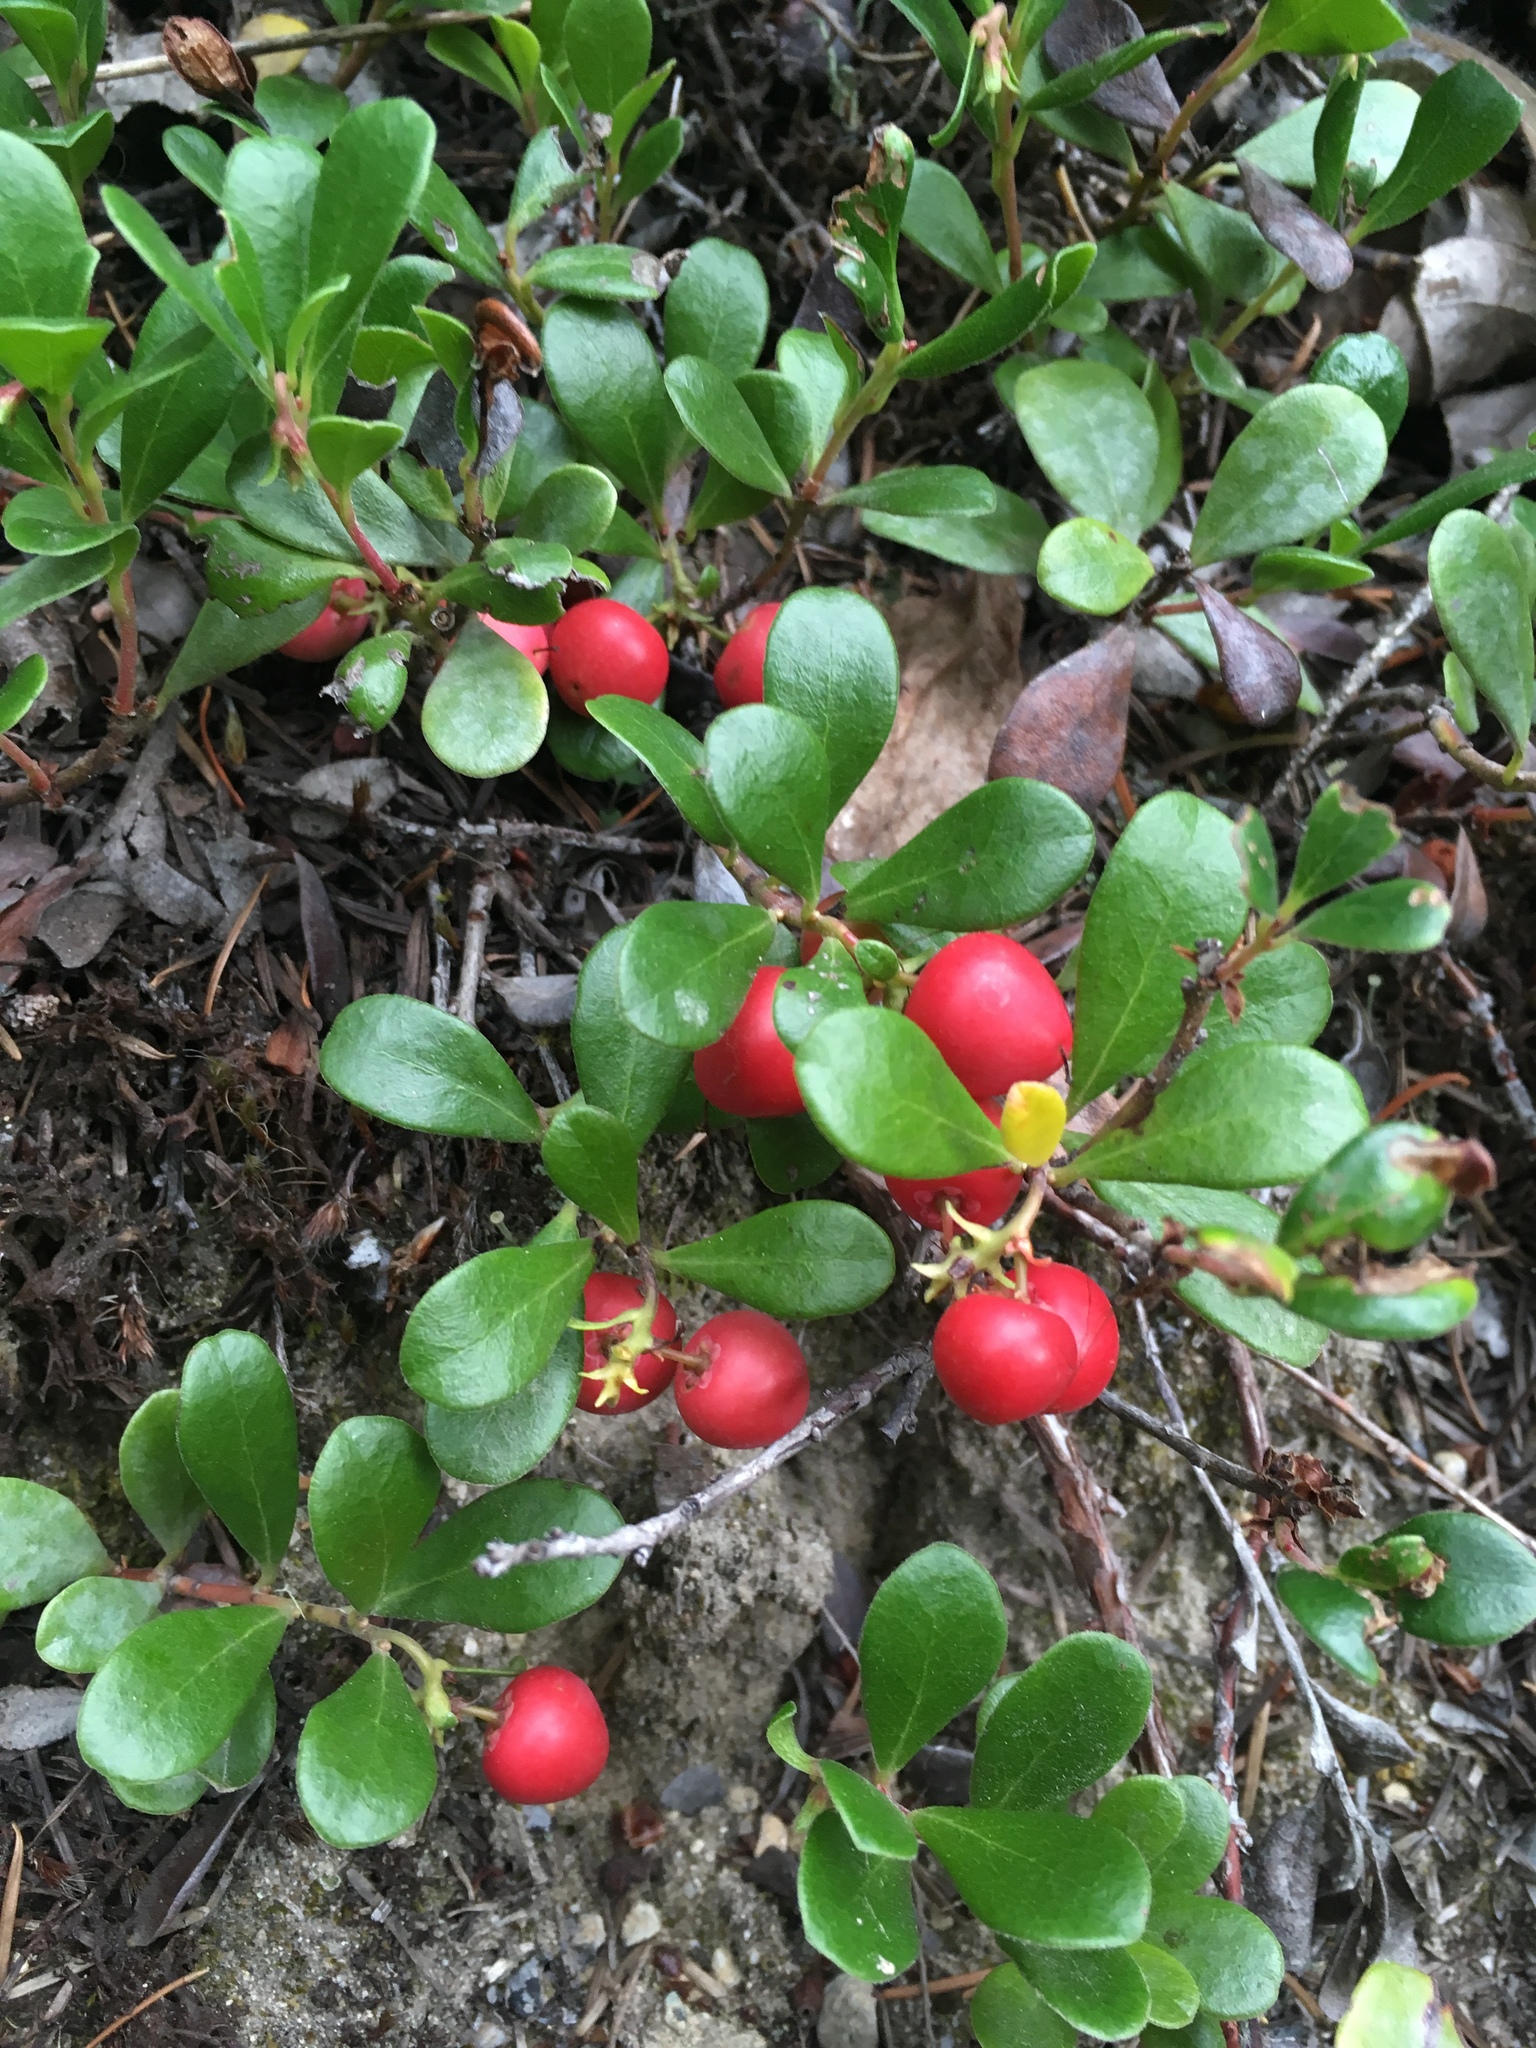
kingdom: Plantae
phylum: Tracheophyta
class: Magnoliopsida
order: Ericales
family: Ericaceae
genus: Arctostaphylos
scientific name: Arctostaphylos uva-ursi
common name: Bearberry
